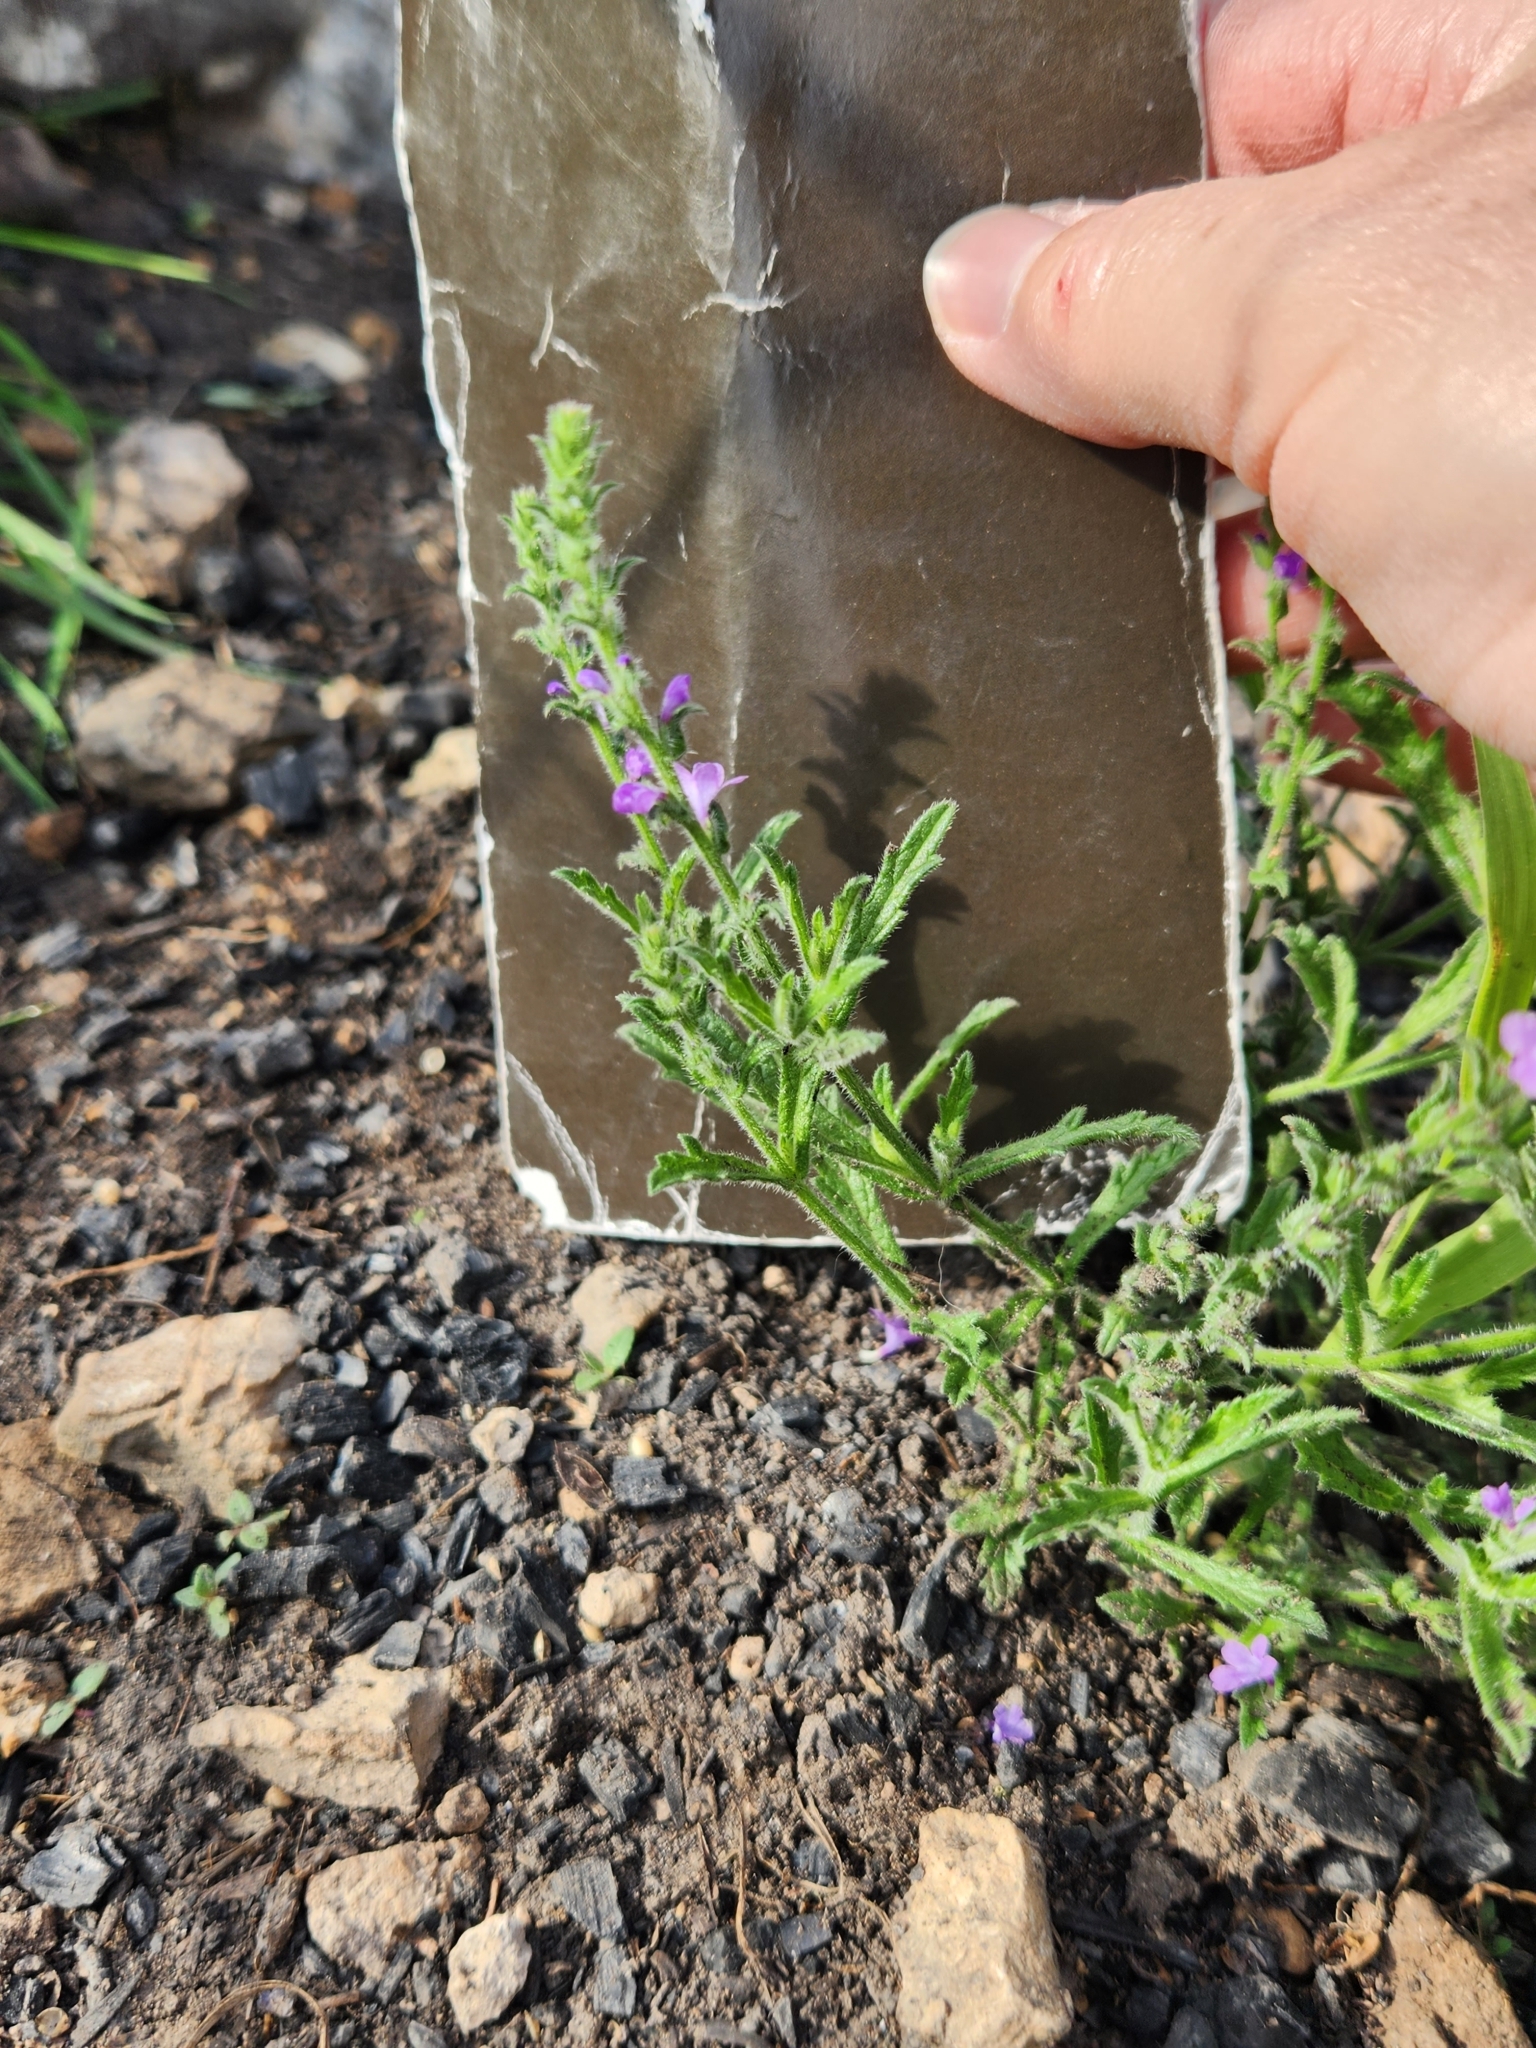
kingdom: Plantae
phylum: Tracheophyta
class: Magnoliopsida
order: Lamiales
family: Verbenaceae
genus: Verbena
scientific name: Verbena canescens
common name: Gray vervain
